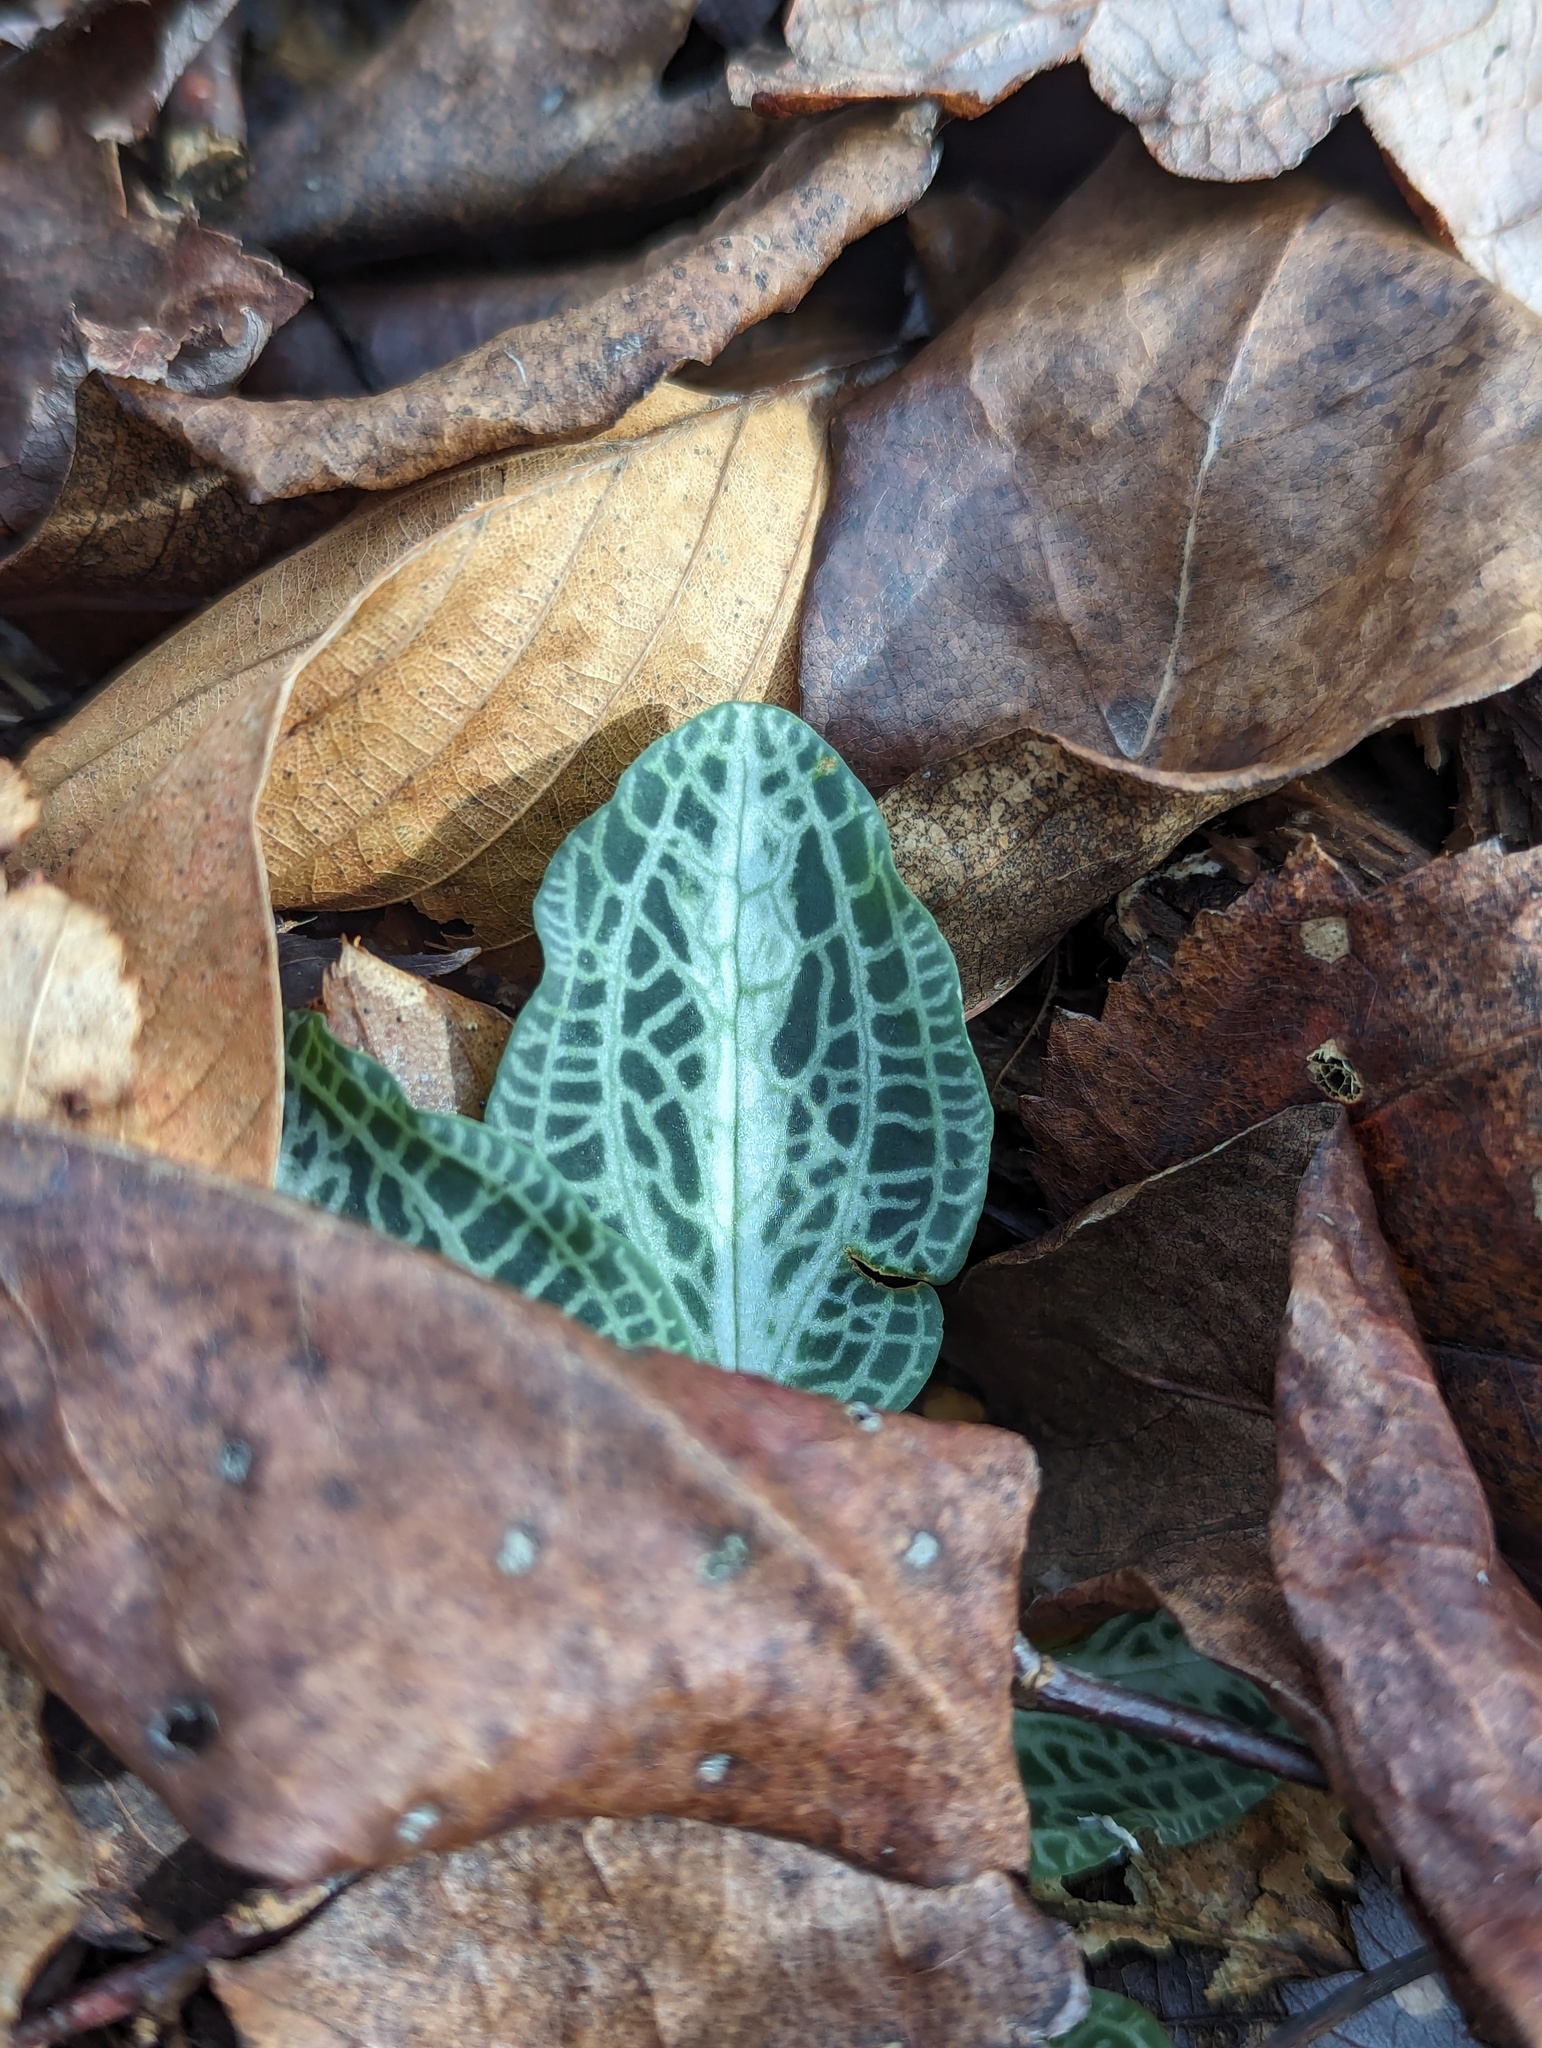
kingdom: Plantae
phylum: Tracheophyta
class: Liliopsida
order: Asparagales
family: Orchidaceae
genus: Goodyera
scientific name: Goodyera pubescens
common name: Downy rattlesnake-plantain
